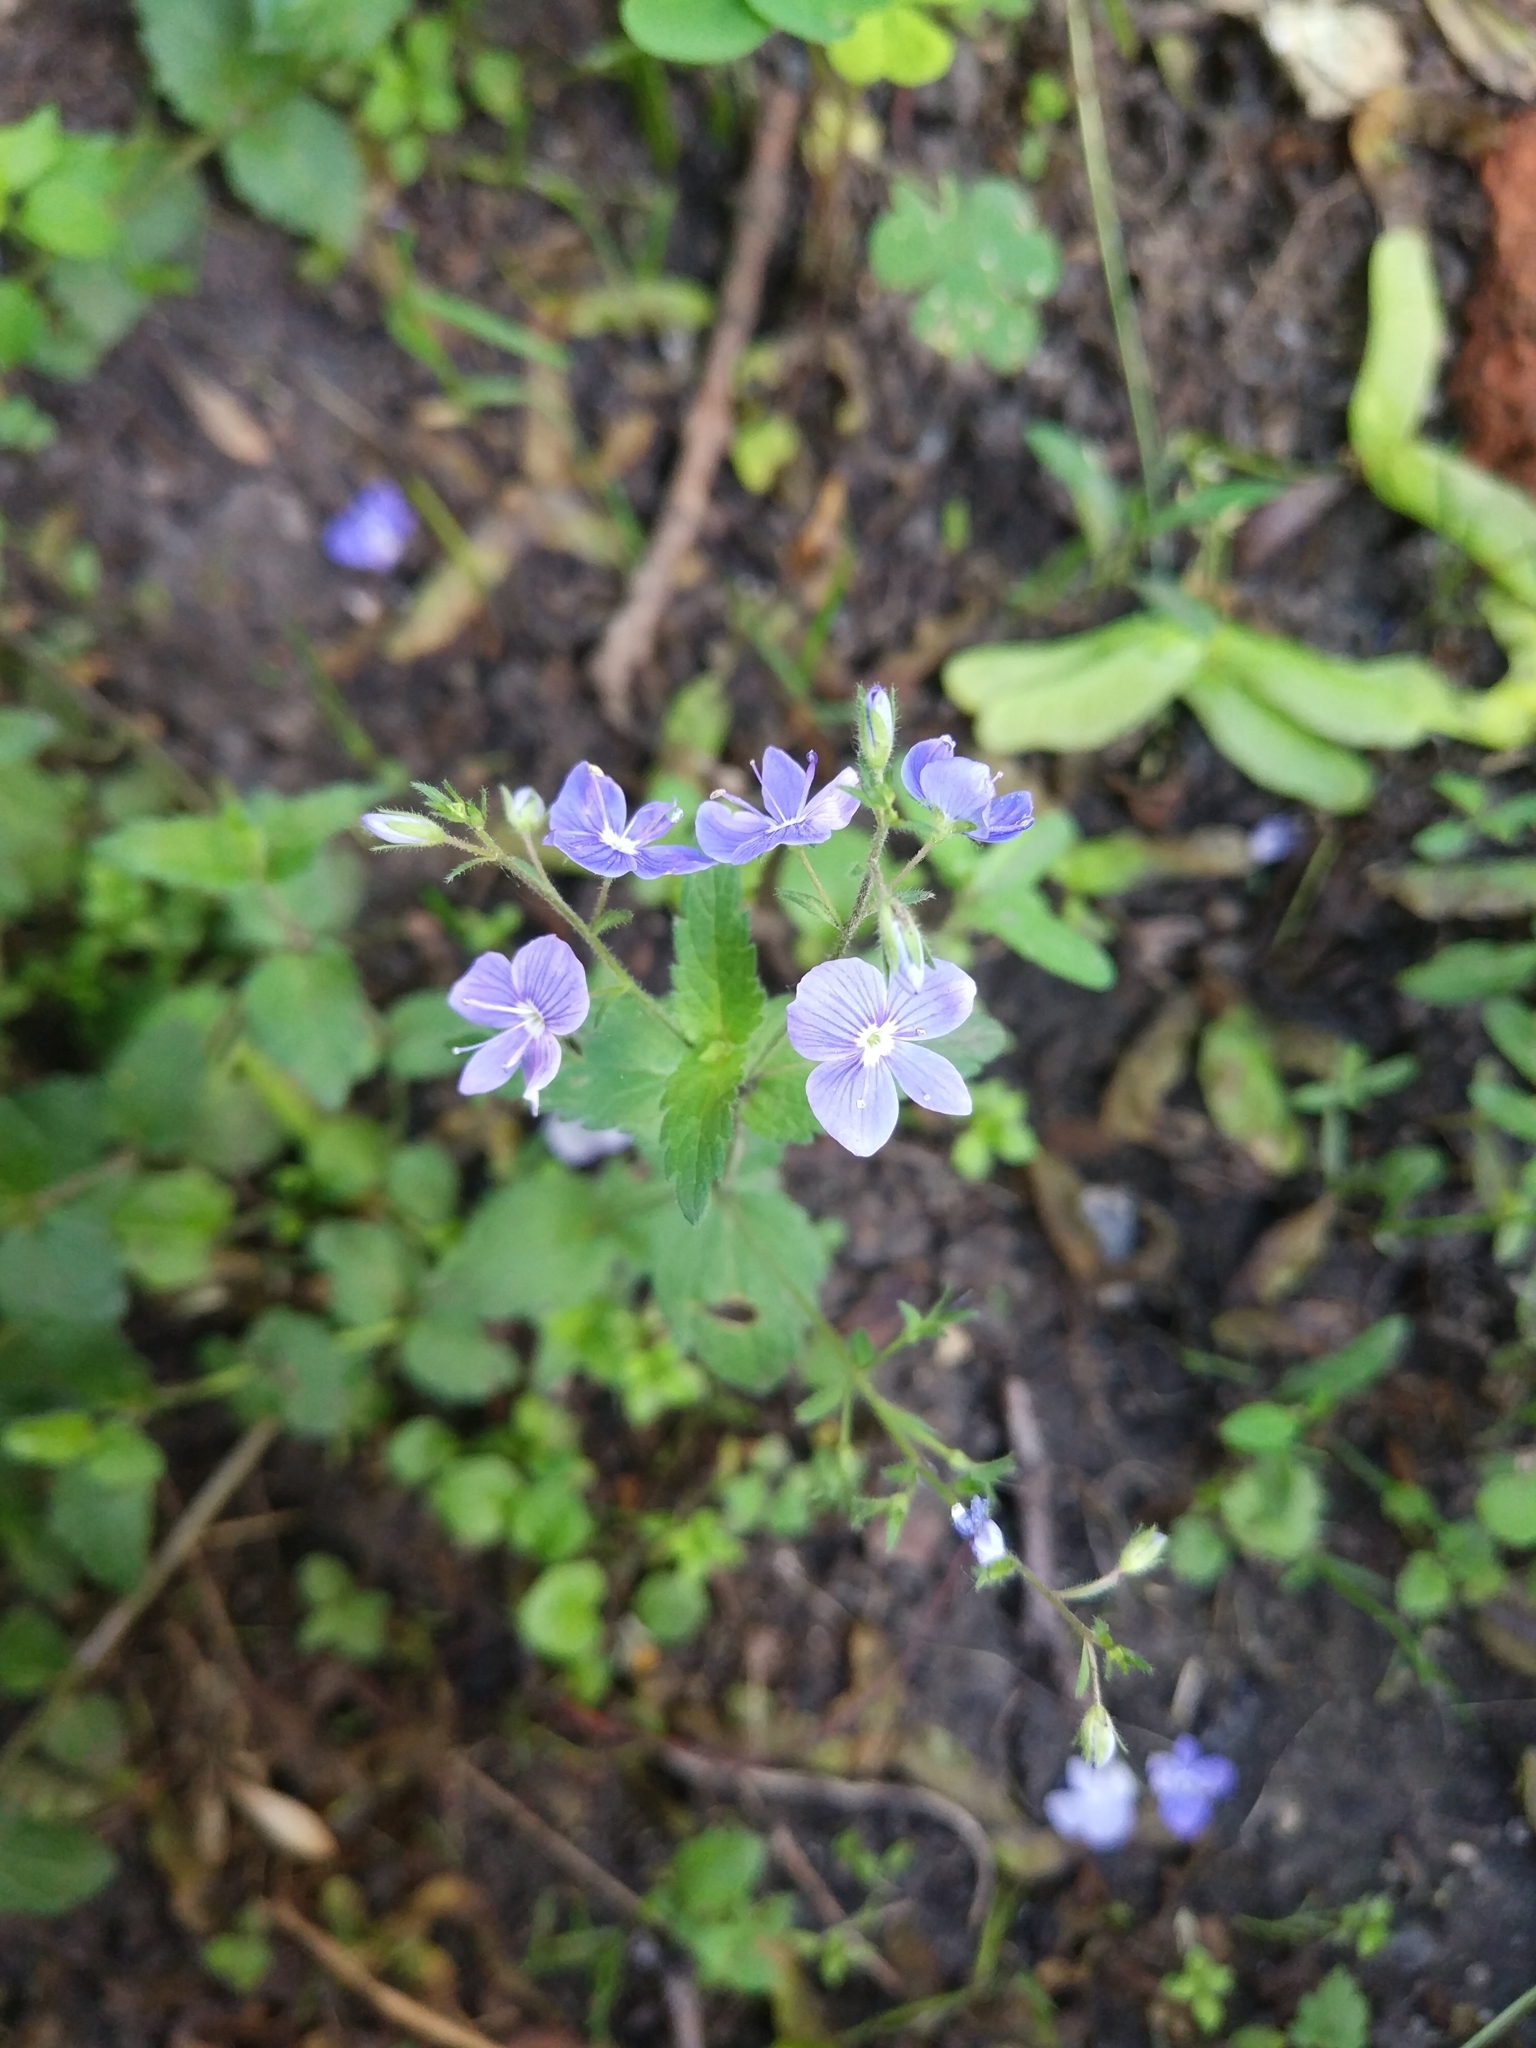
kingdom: Plantae
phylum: Tracheophyta
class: Magnoliopsida
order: Lamiales
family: Plantaginaceae
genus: Veronica
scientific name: Veronica chamaedrys
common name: Germander speedwell
